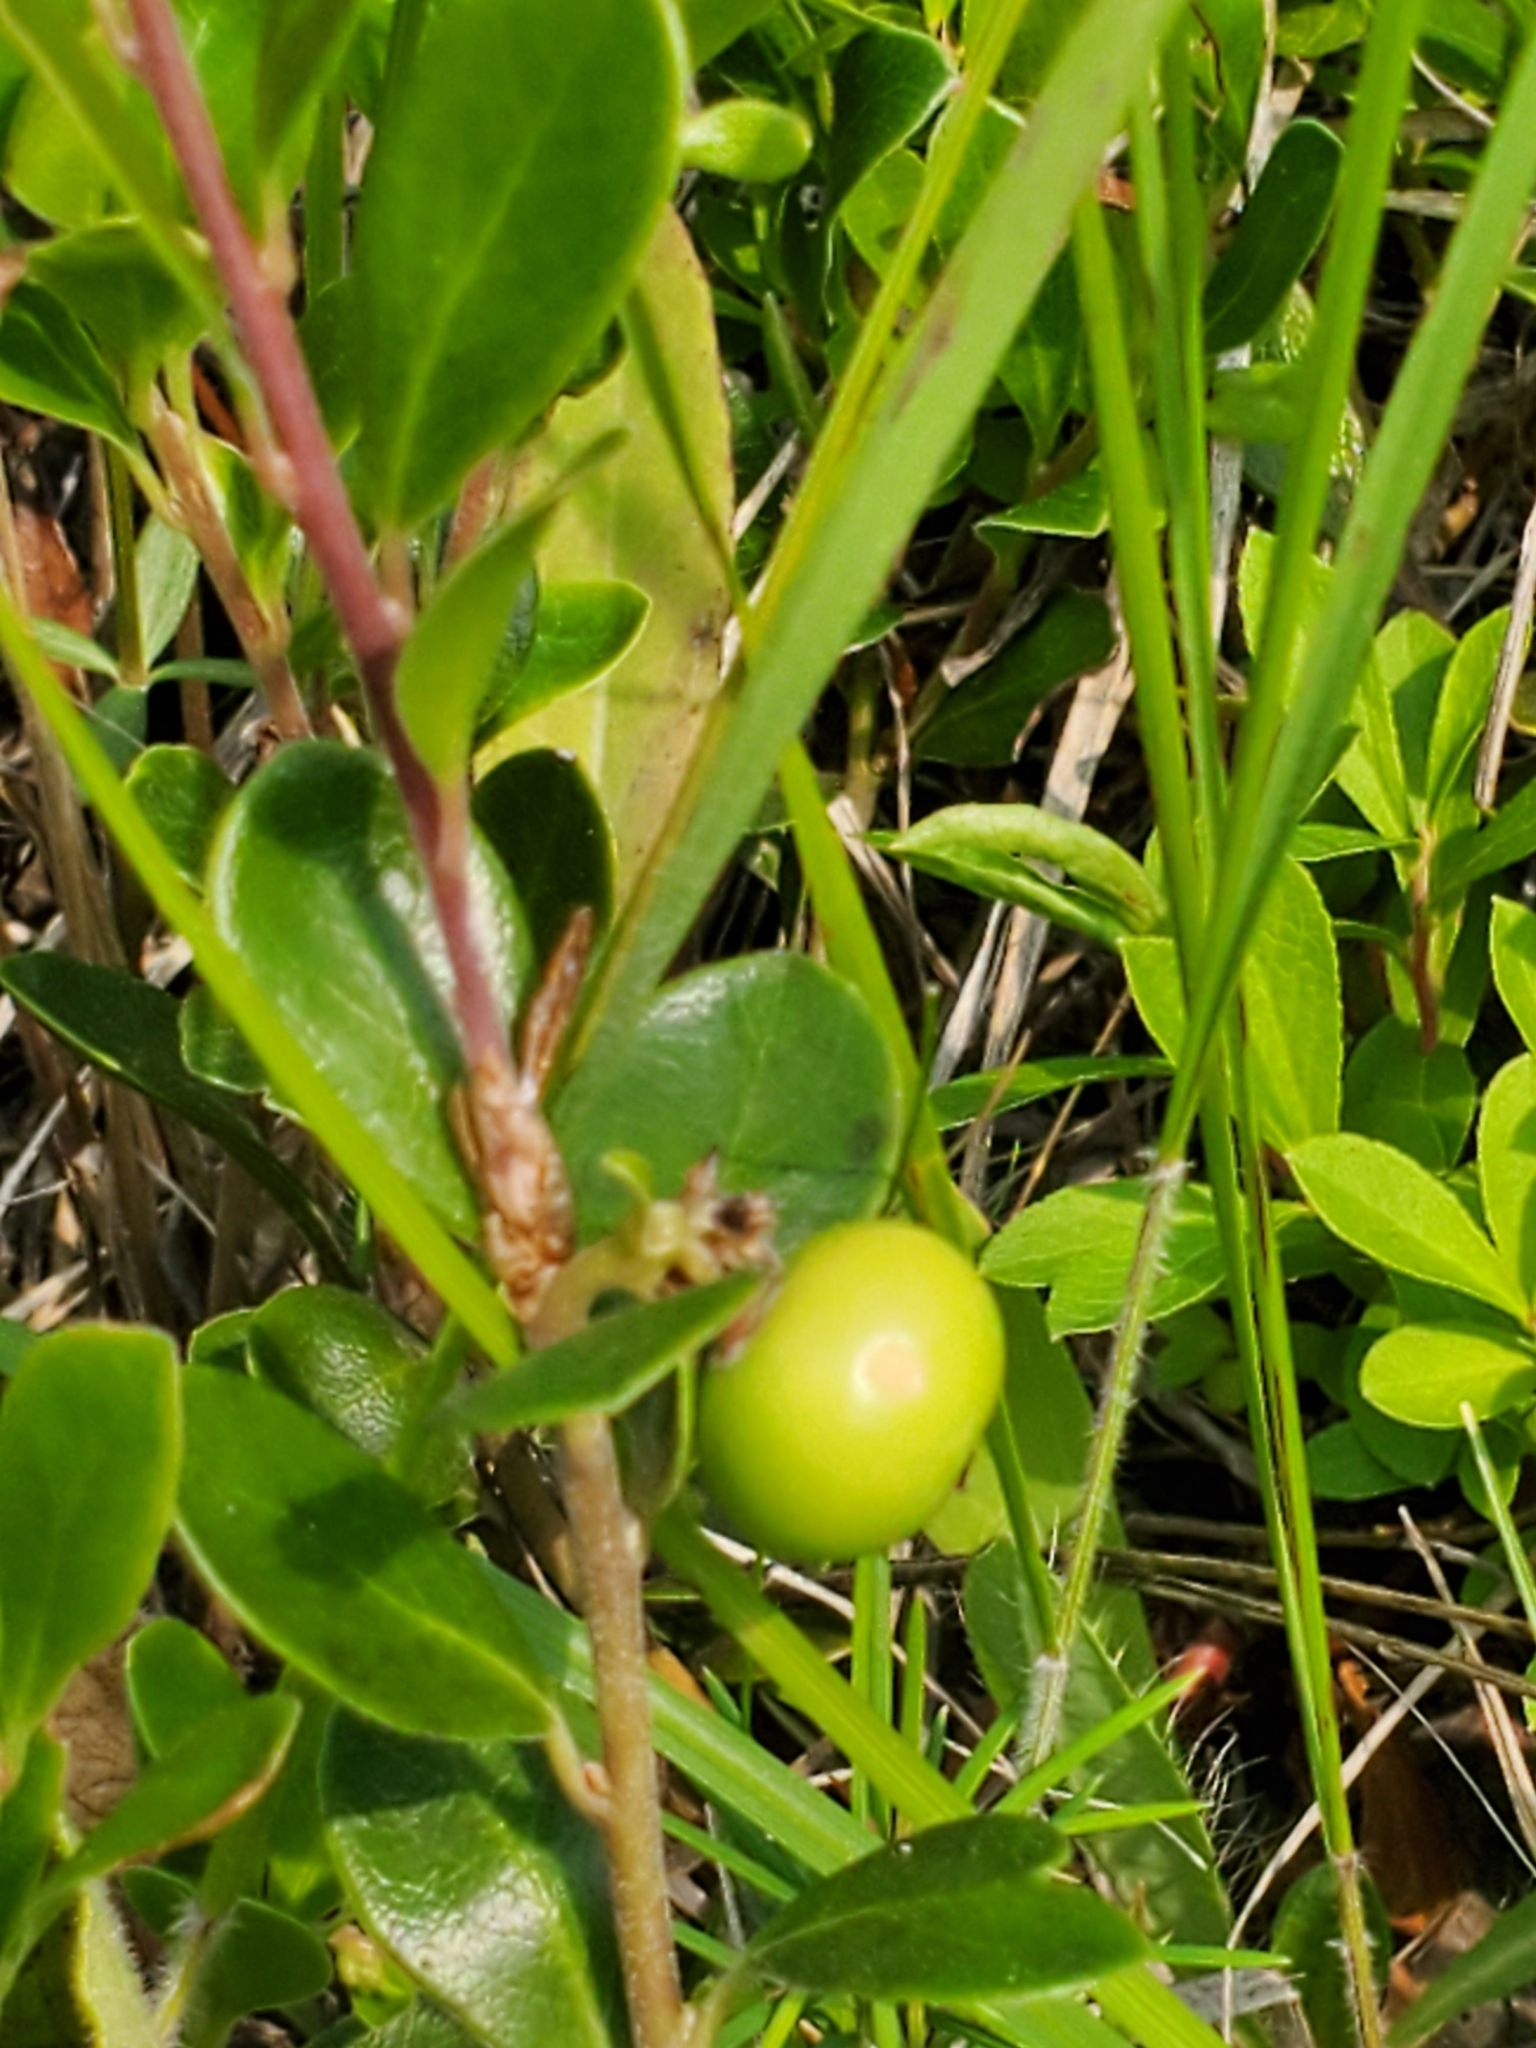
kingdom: Plantae
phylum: Tracheophyta
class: Magnoliopsida
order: Ericales
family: Ericaceae
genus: Arctostaphylos
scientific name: Arctostaphylos uva-ursi
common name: Bearberry
